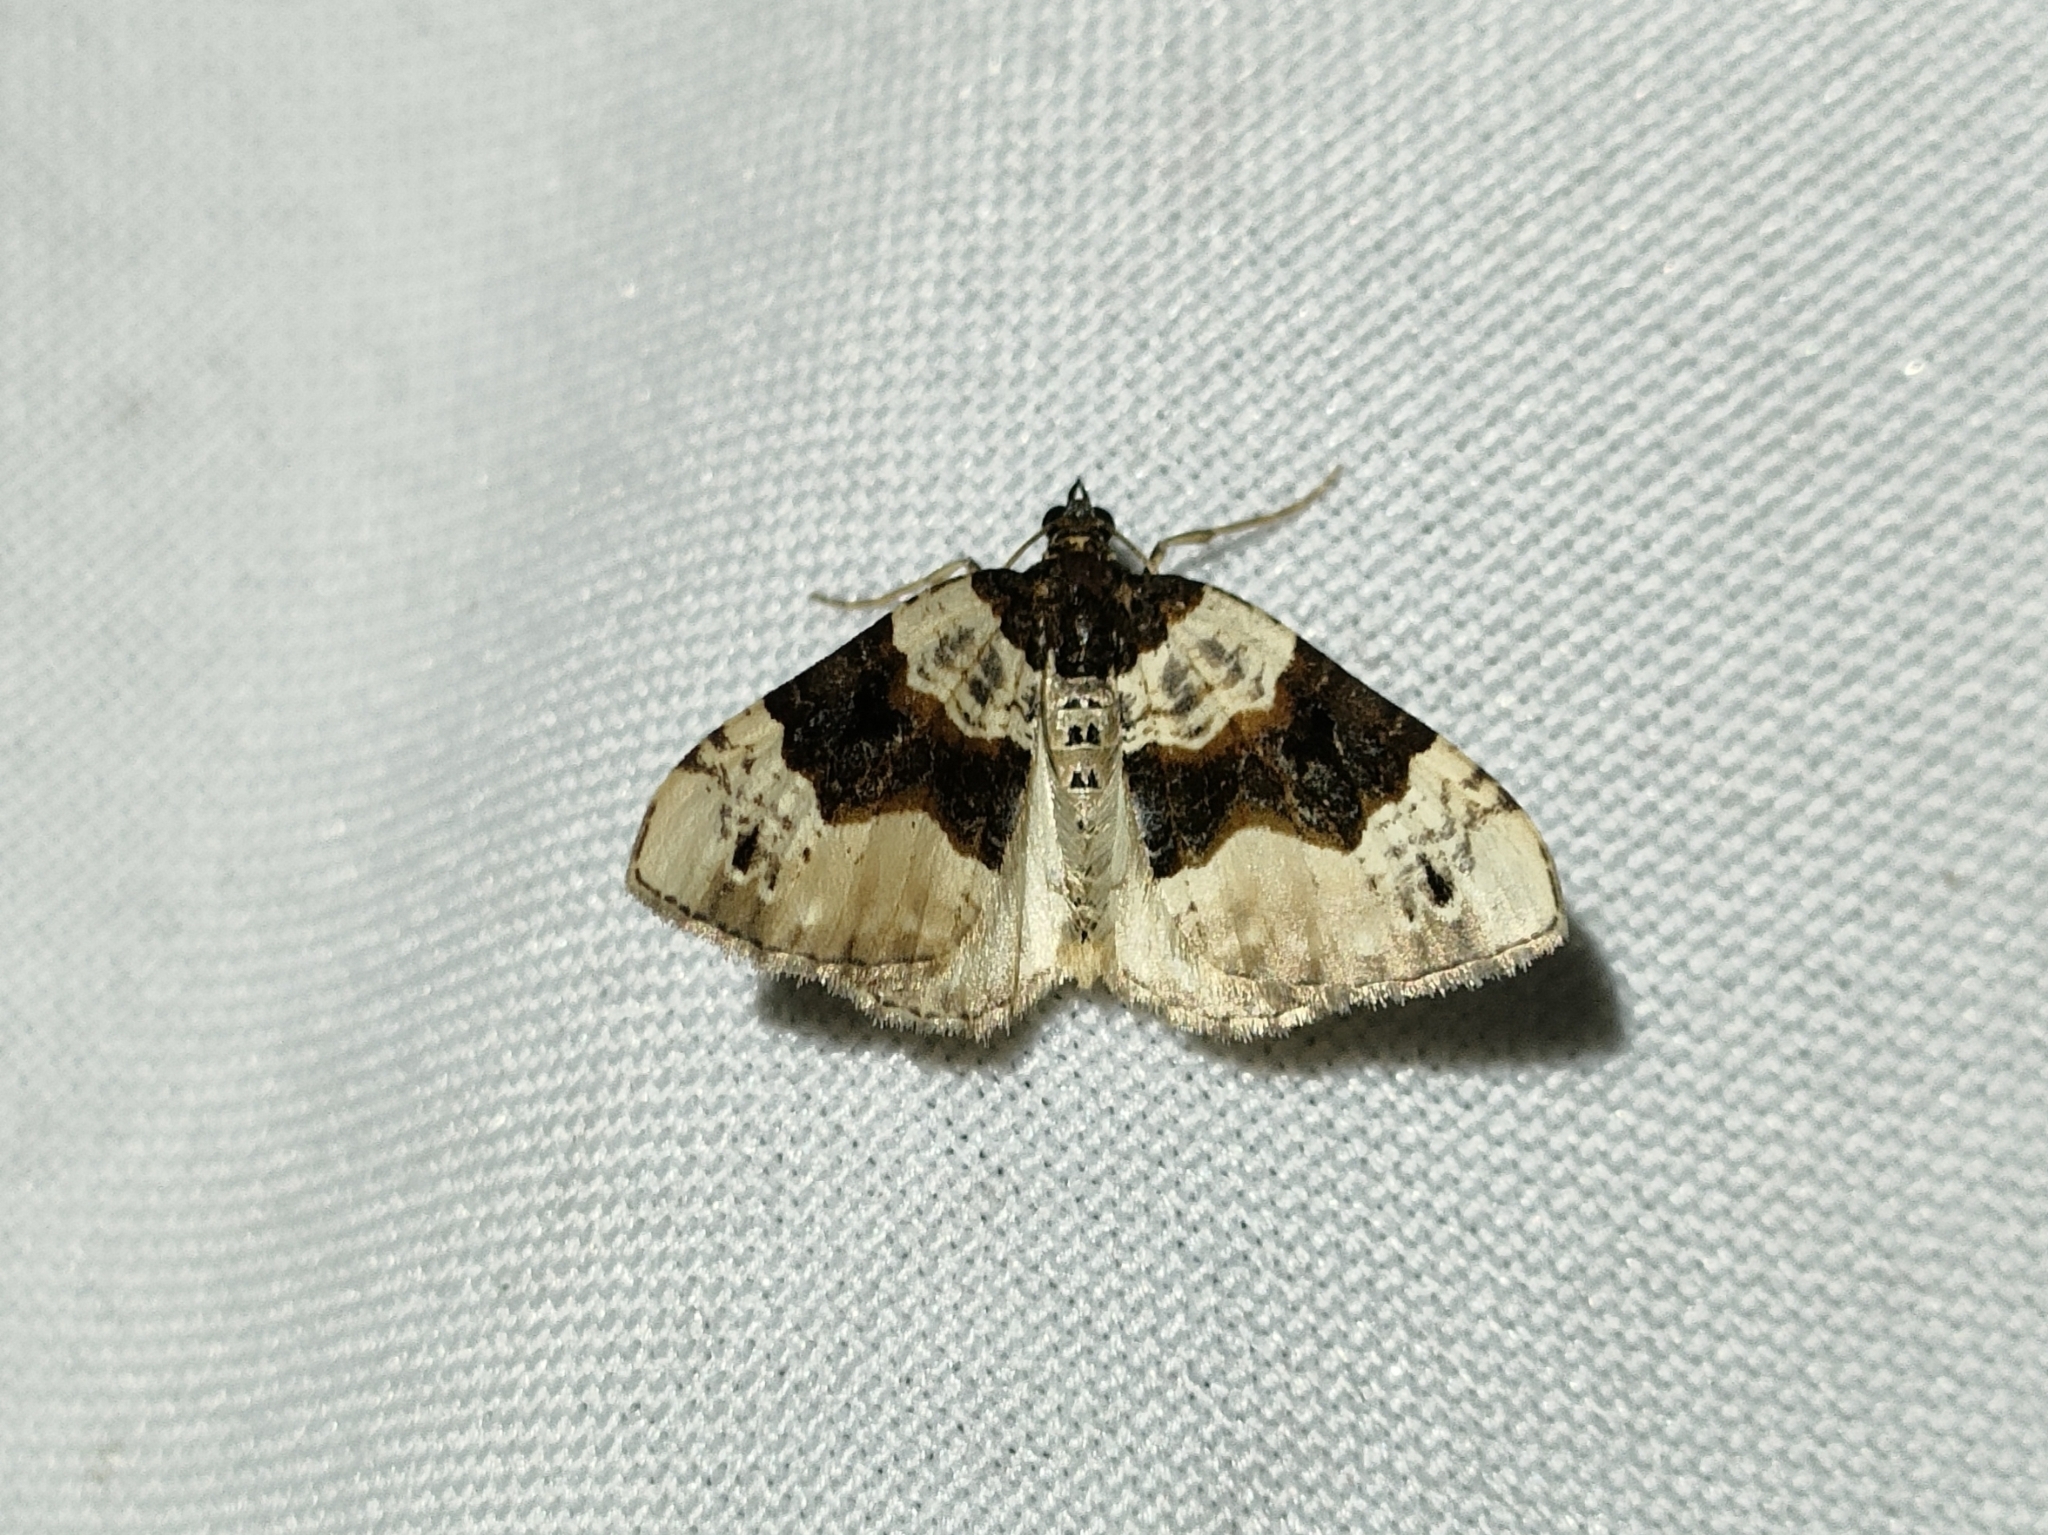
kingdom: Animalia
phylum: Arthropoda
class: Insecta
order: Lepidoptera
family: Geometridae
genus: Cosmorhoe
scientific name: Cosmorhoe ocellata
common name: Purple bar
